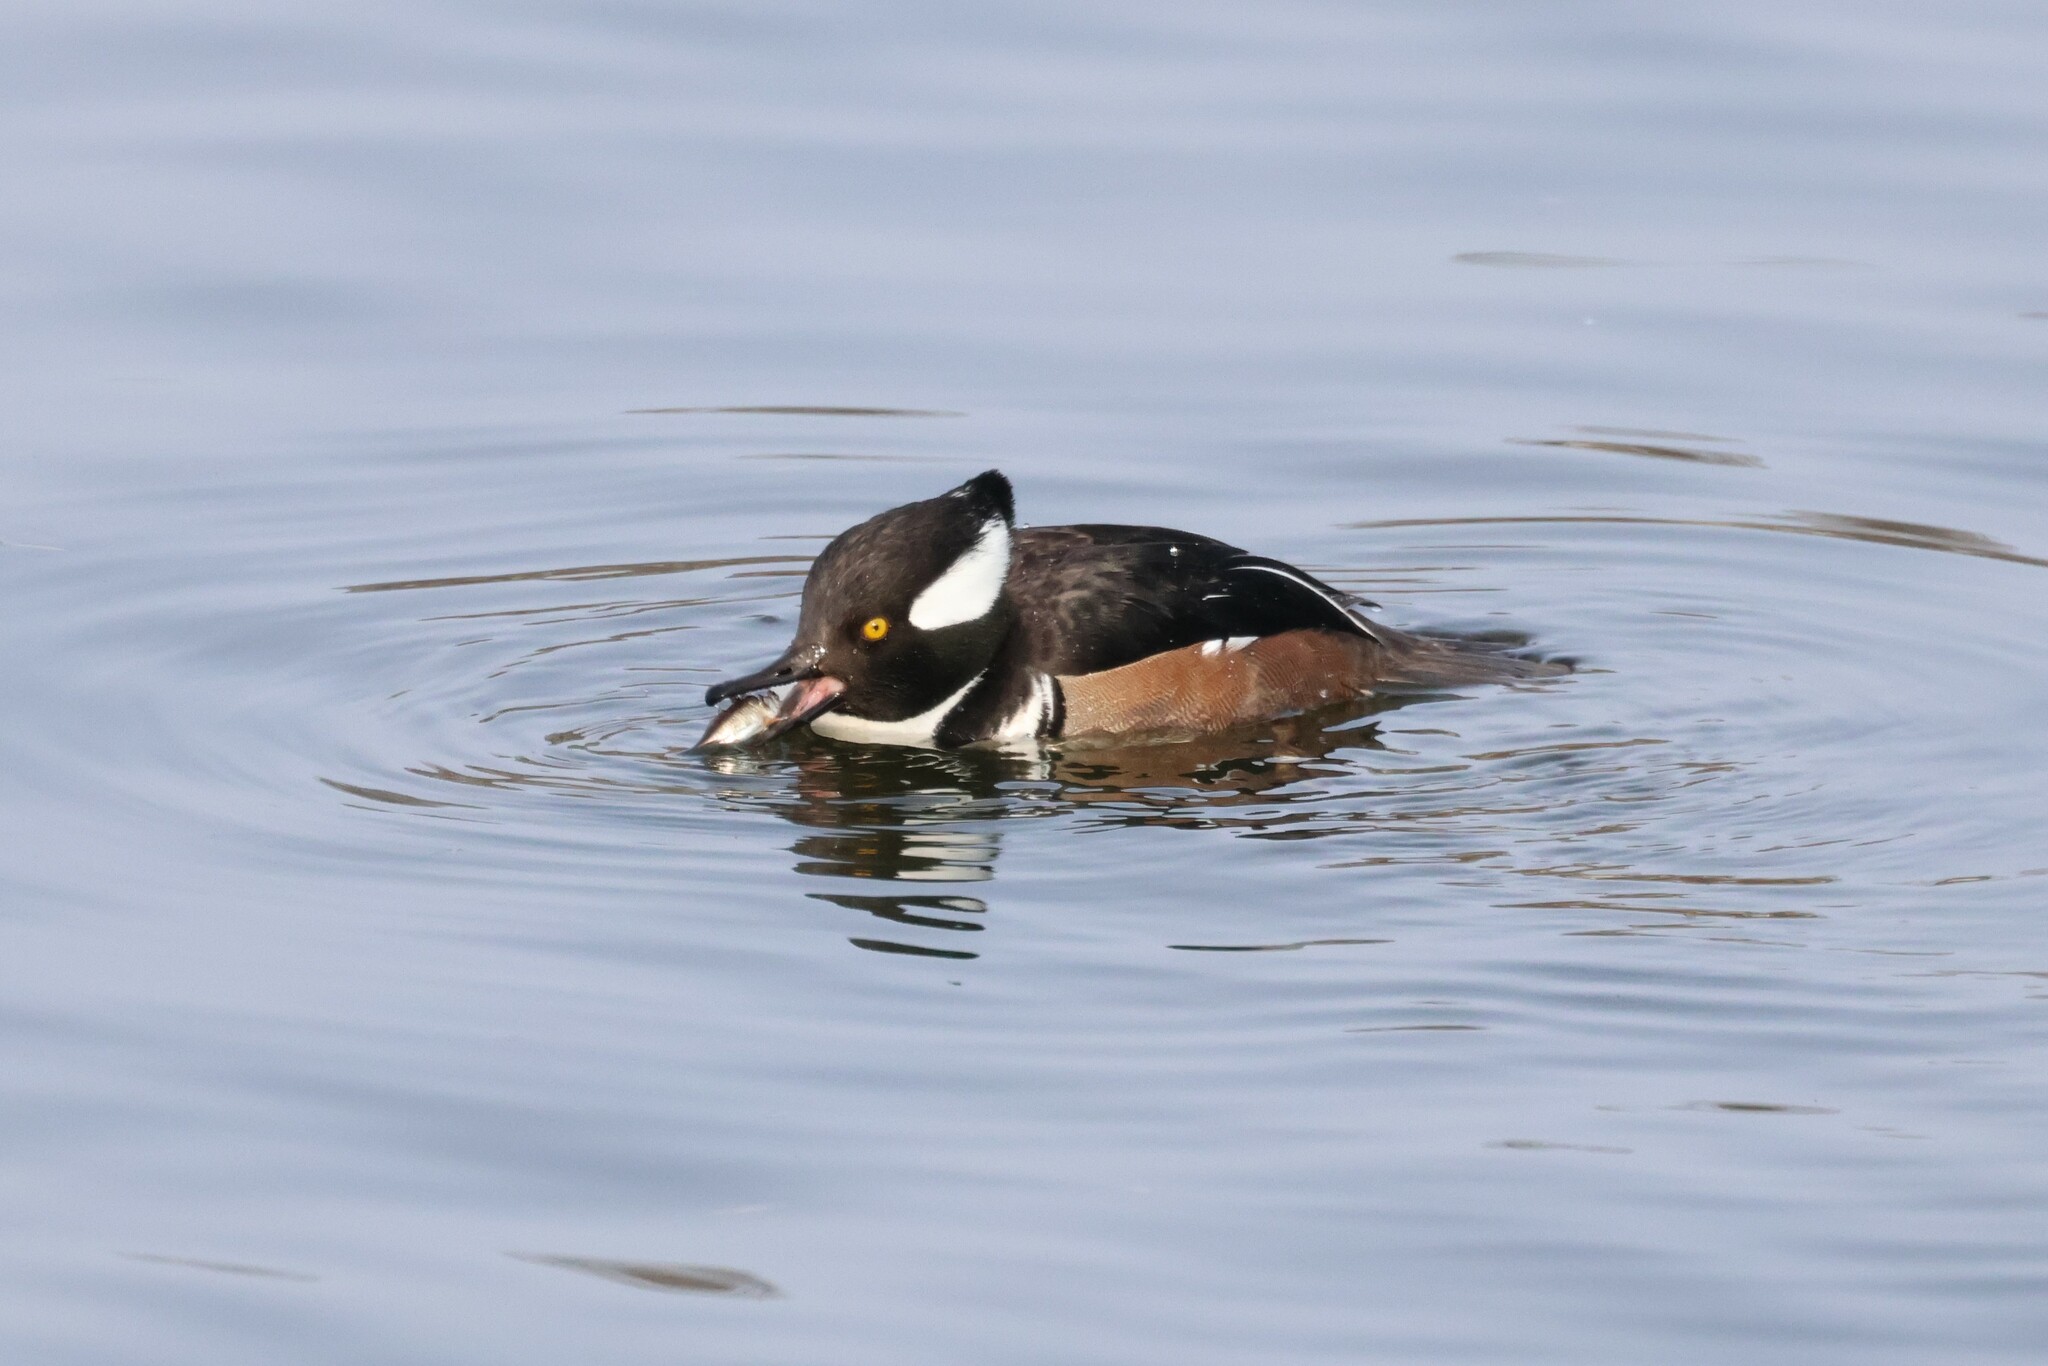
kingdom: Animalia
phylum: Chordata
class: Aves
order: Anseriformes
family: Anatidae
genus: Lophodytes
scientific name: Lophodytes cucullatus
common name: Hooded merganser
